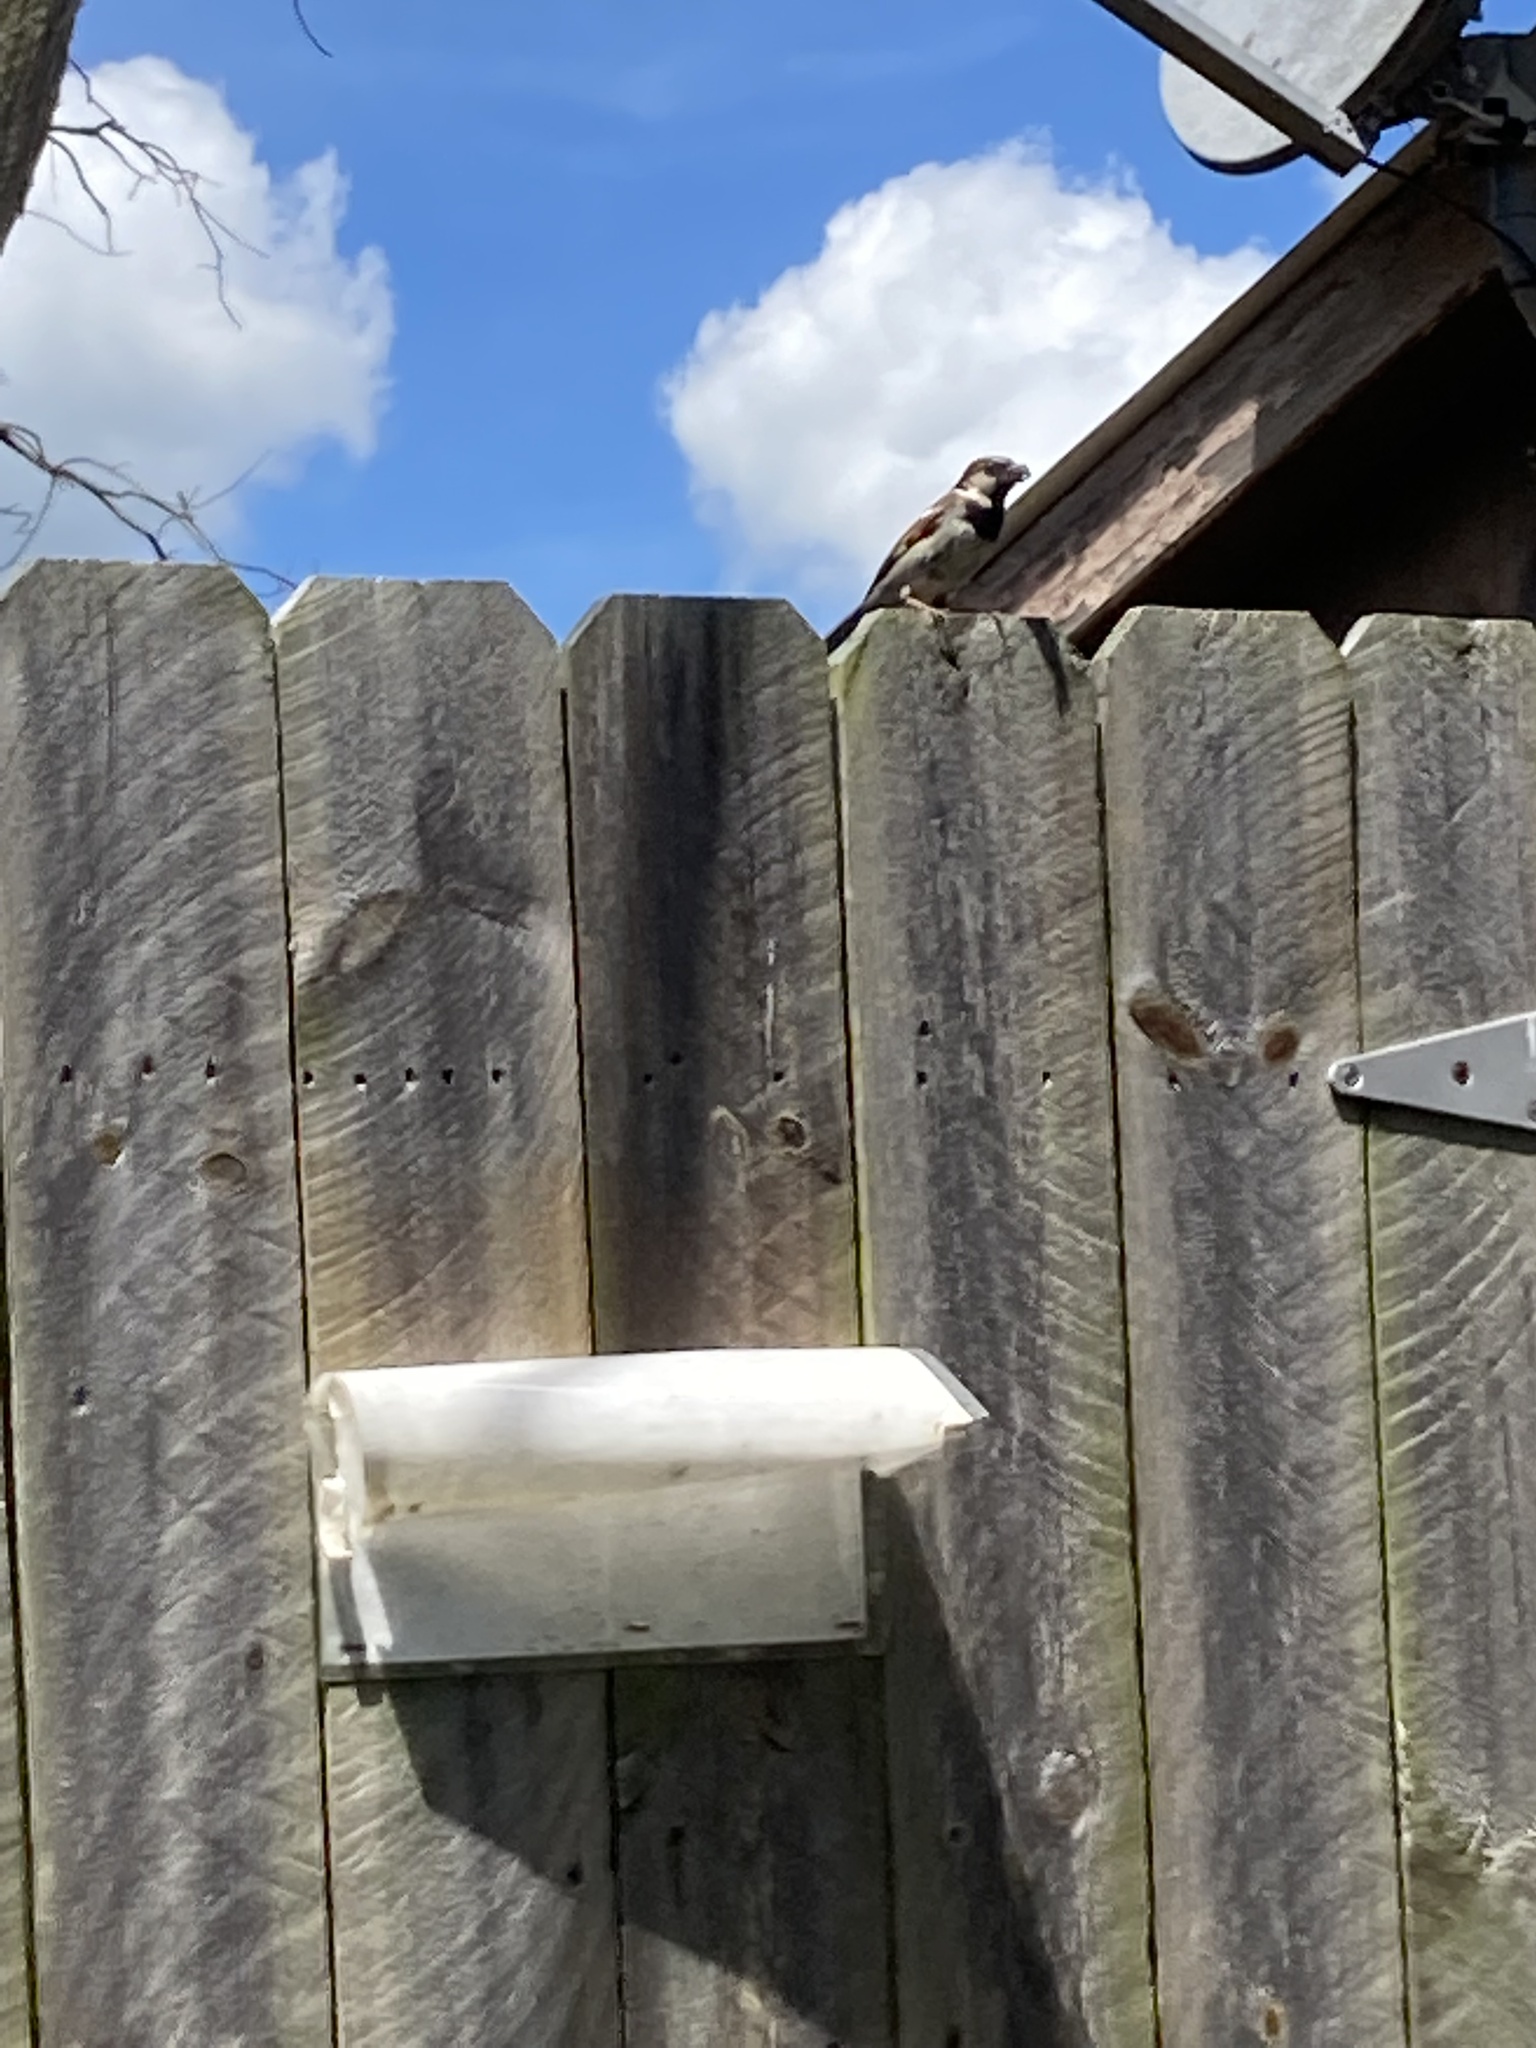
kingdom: Animalia
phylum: Chordata
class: Aves
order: Passeriformes
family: Passeridae
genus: Passer
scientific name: Passer domesticus
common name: House sparrow
